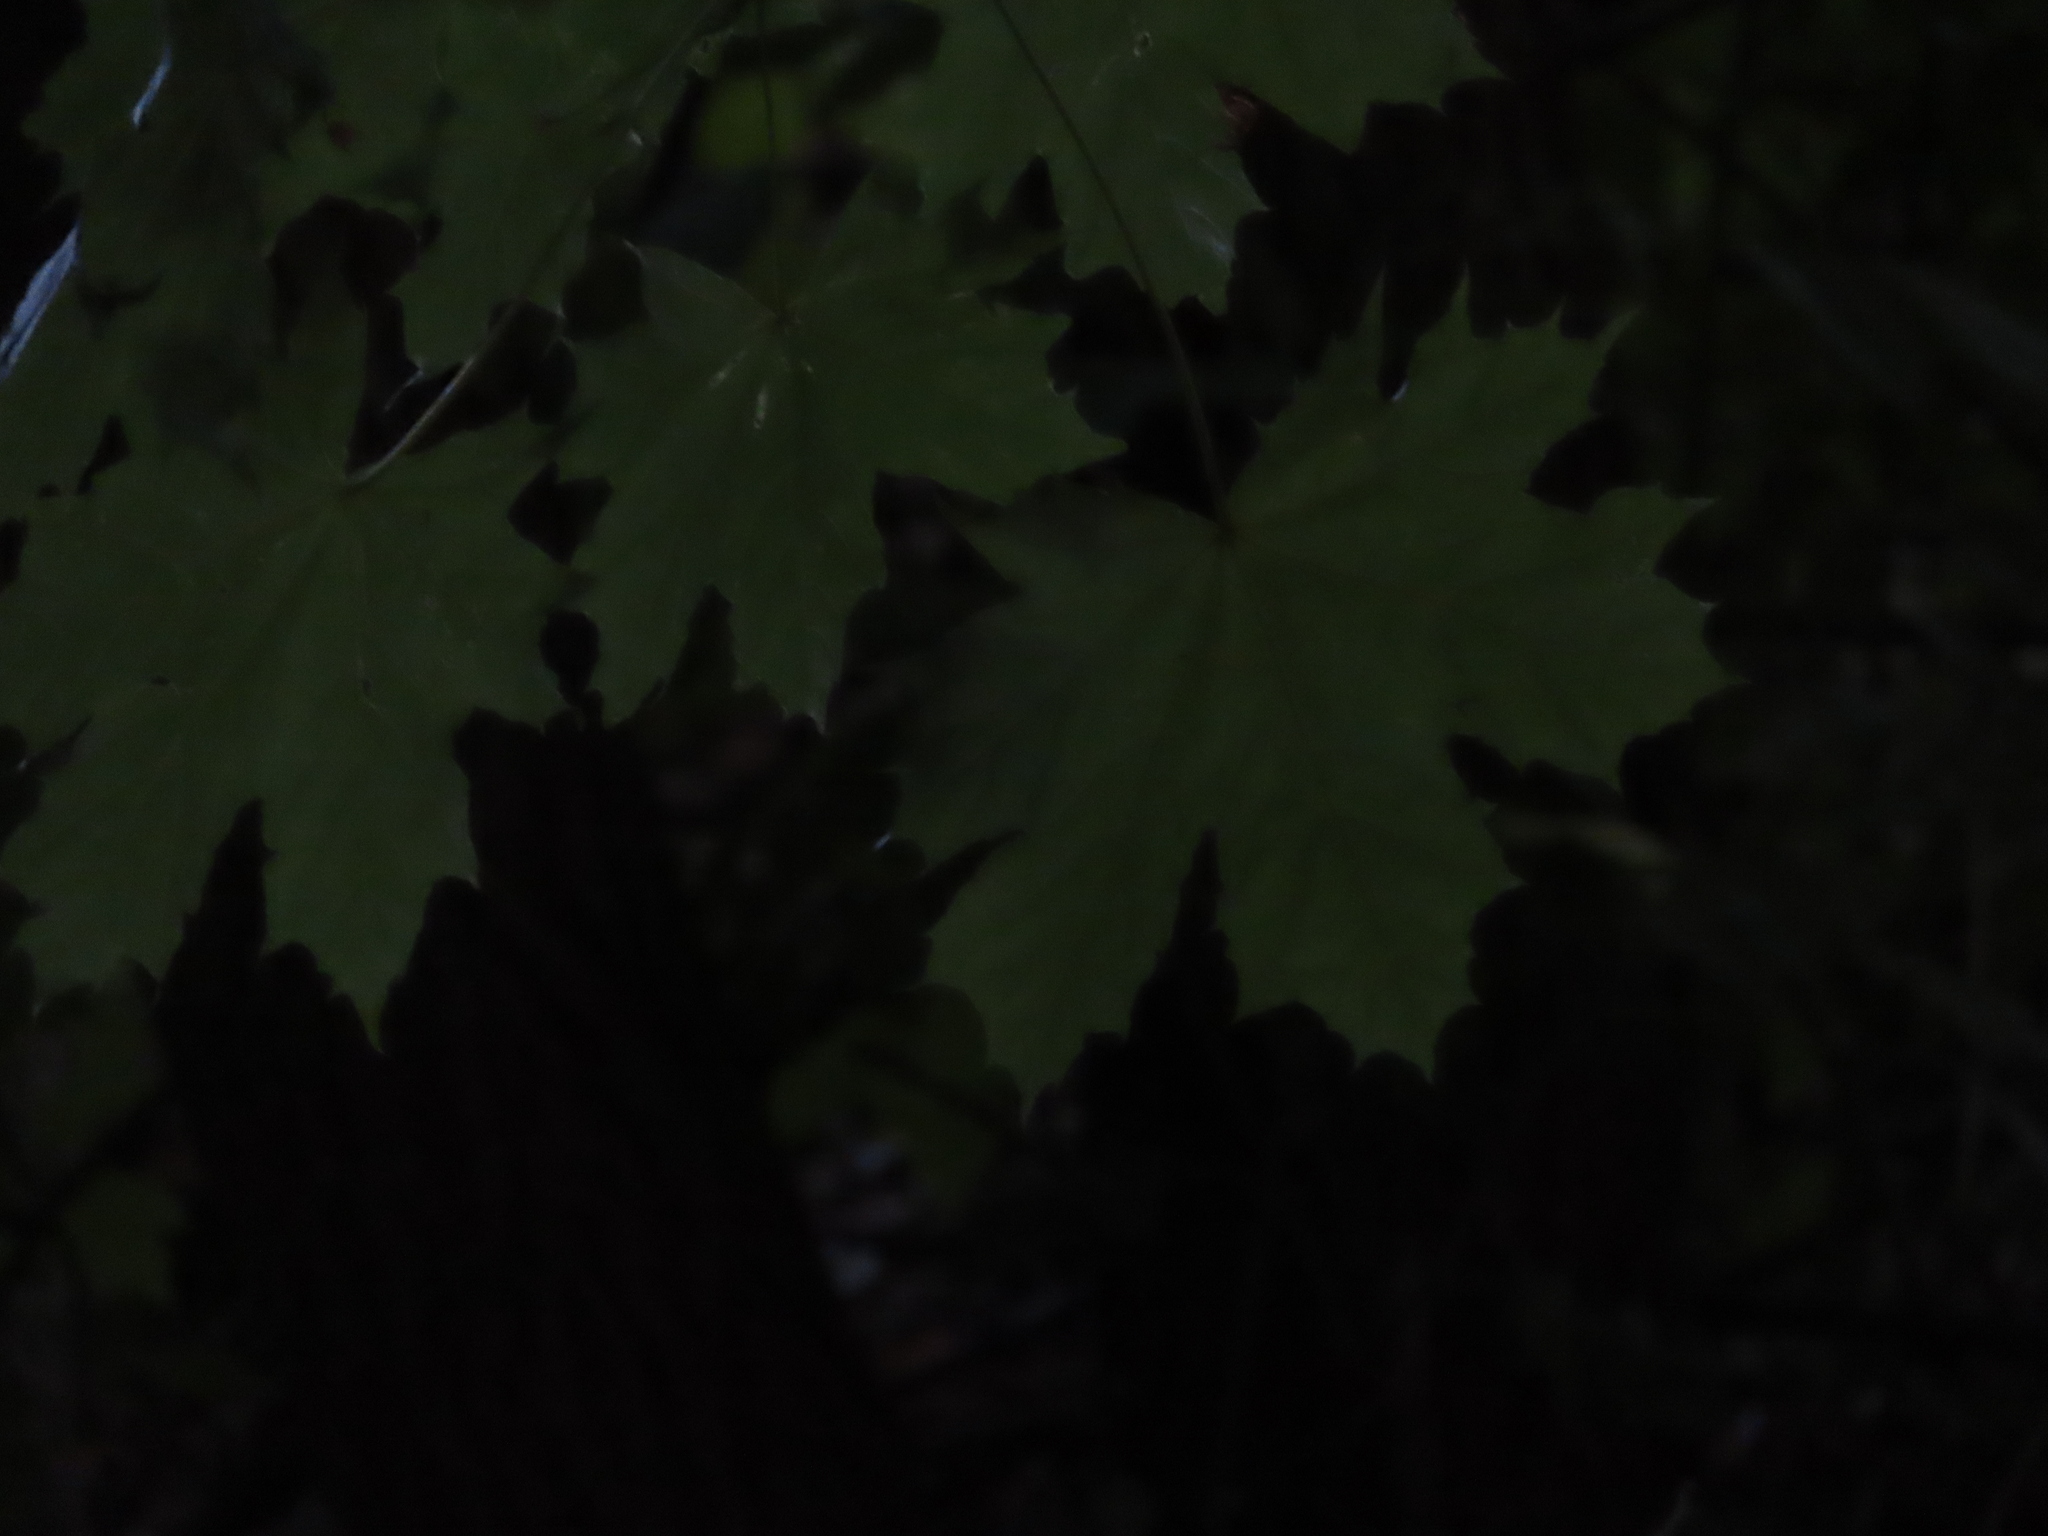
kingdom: Plantae
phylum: Tracheophyta
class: Magnoliopsida
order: Sapindales
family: Sapindaceae
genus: Acer
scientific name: Acer platanoides
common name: Norway maple
